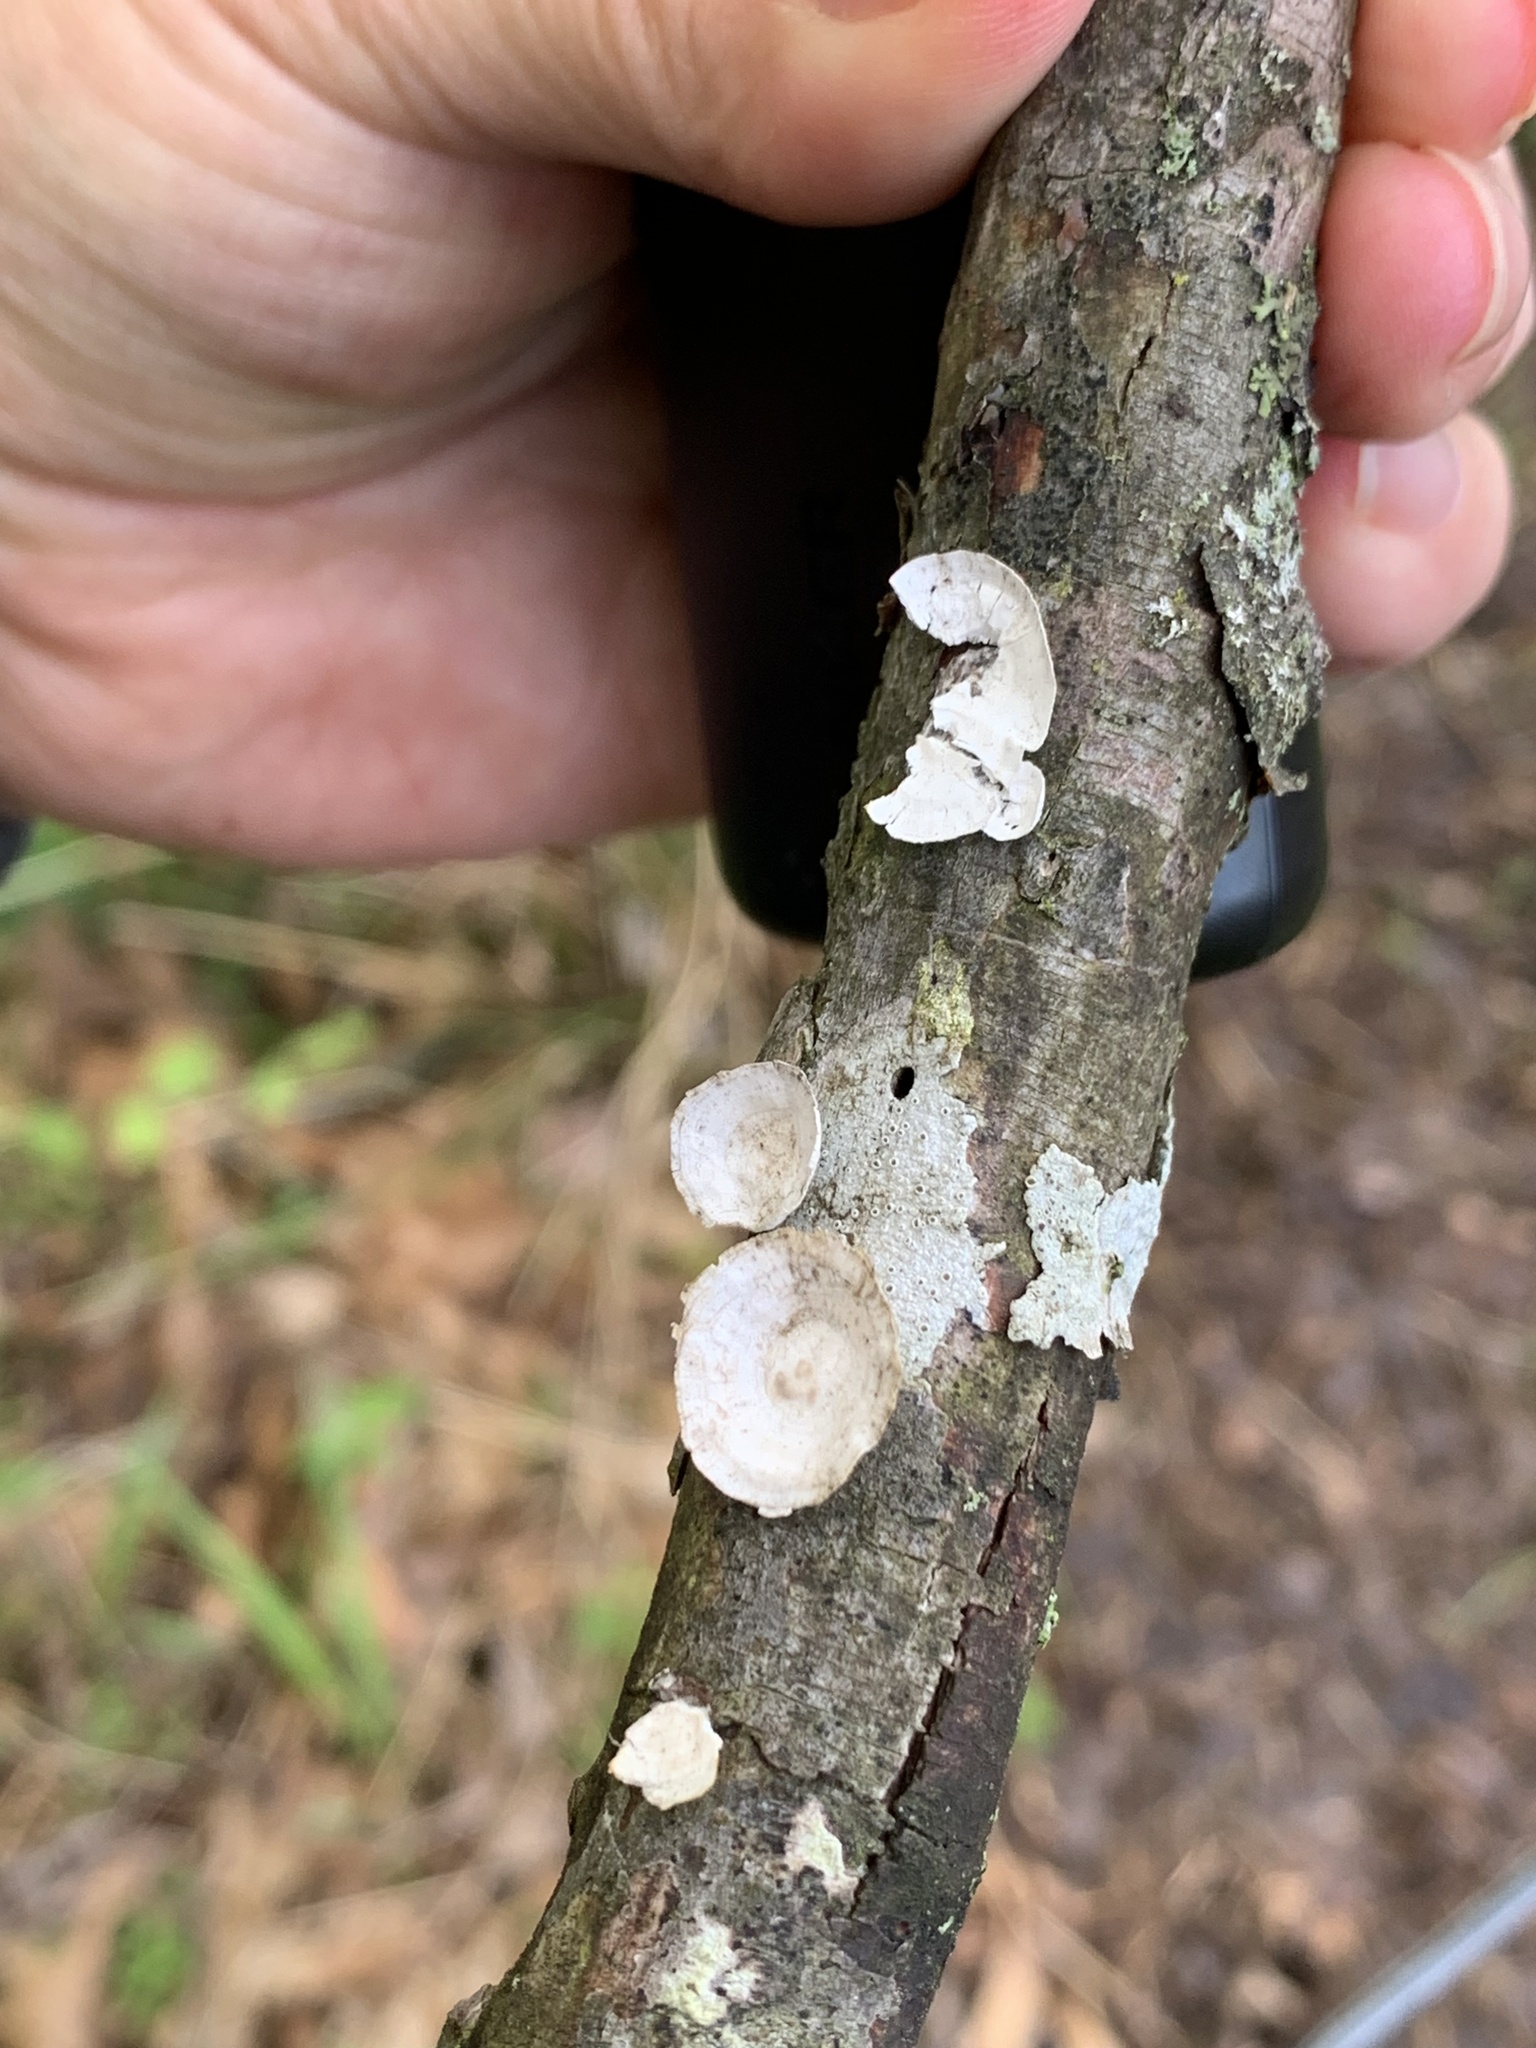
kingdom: Fungi
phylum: Basidiomycota
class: Agaricomycetes
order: Polyporales
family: Polyporaceae
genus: Poronidulus
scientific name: Poronidulus conchifer
